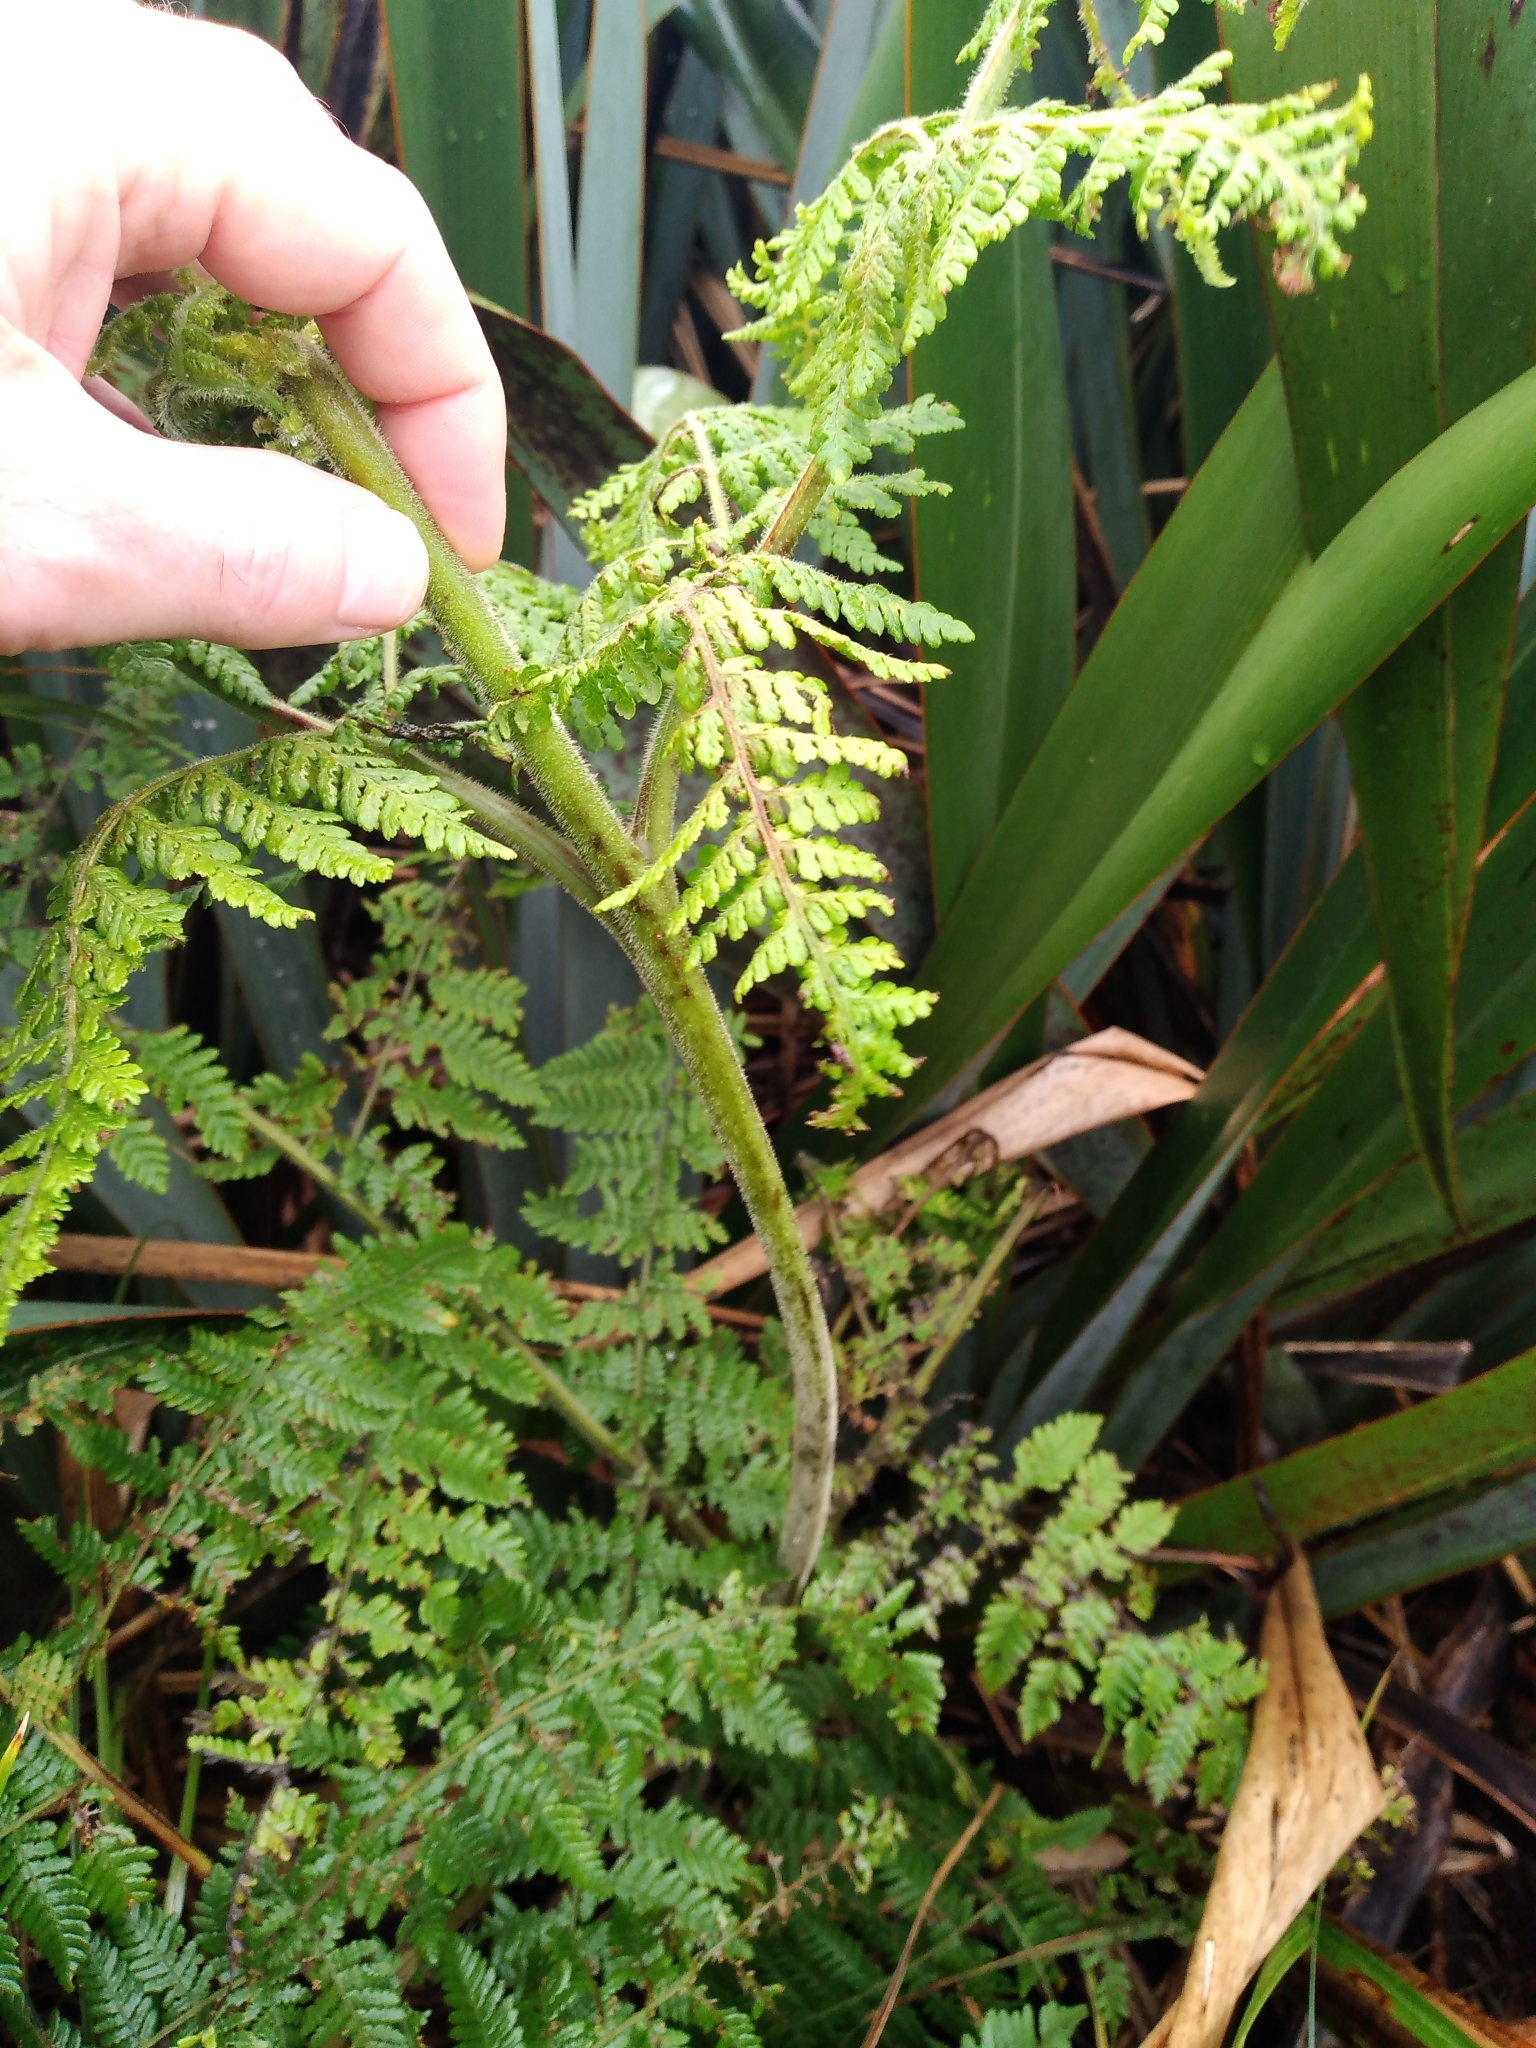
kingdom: Plantae
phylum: Tracheophyta
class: Polypodiopsida
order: Polypodiales
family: Dennstaedtiaceae
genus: Hypolepis
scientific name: Hypolepis dicksonioides
